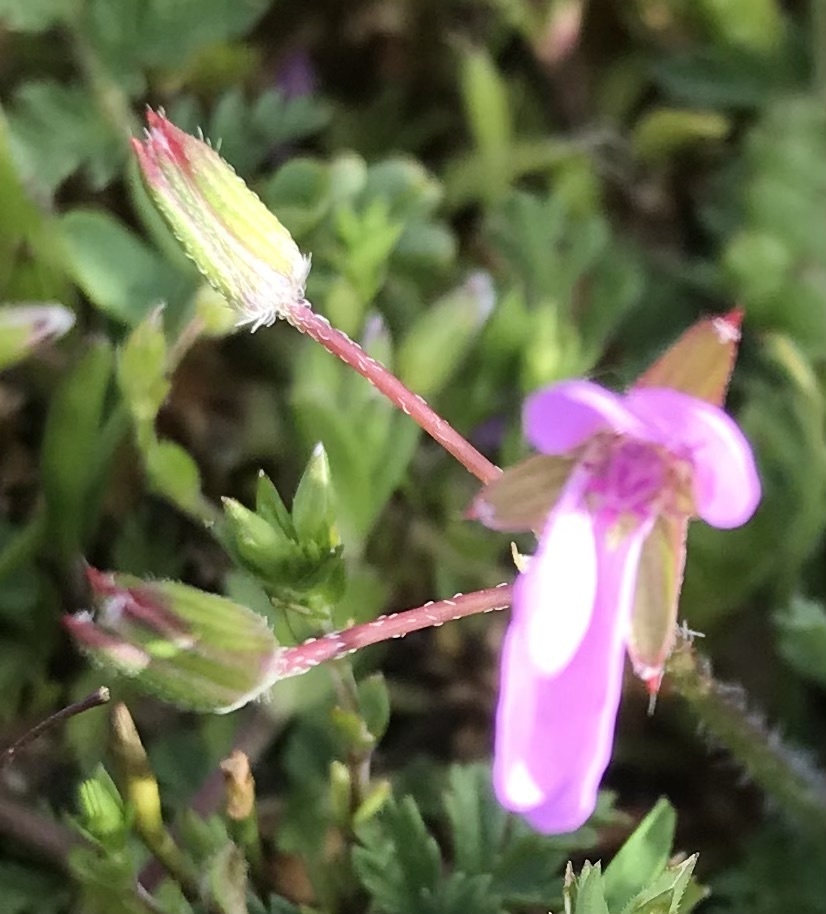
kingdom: Plantae
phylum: Tracheophyta
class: Magnoliopsida
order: Geraniales
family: Geraniaceae
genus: Erodium
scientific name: Erodium cicutarium
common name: Common stork's-bill
